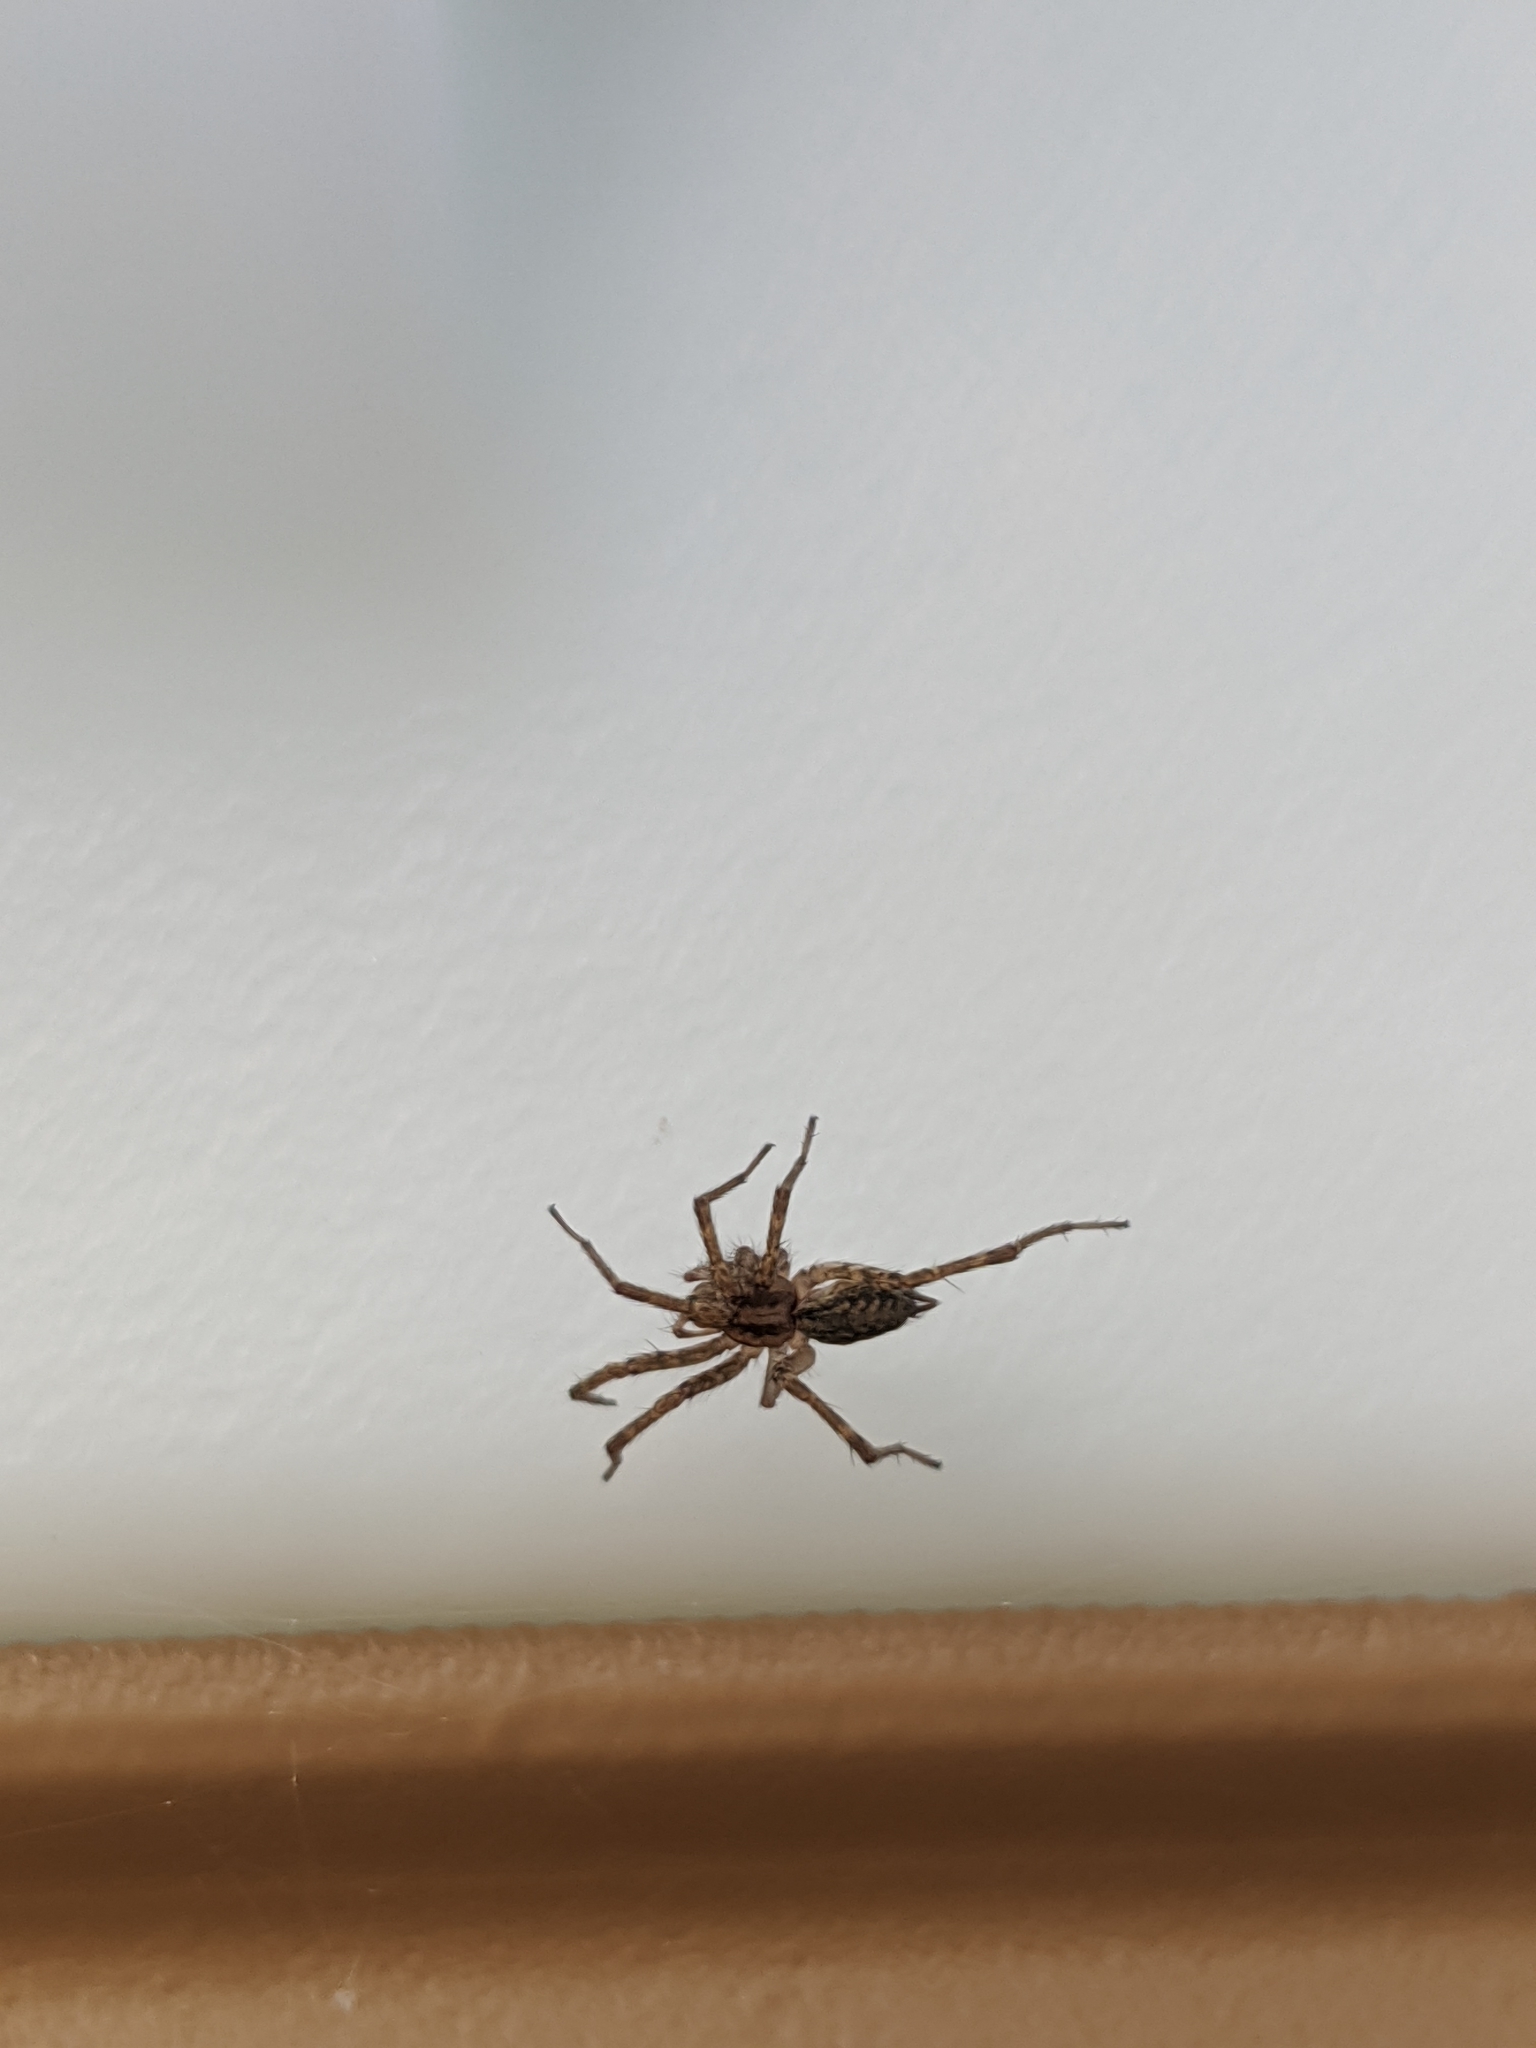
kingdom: Animalia
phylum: Arthropoda
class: Arachnida
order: Araneae
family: Agelenidae
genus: Agelenopsis
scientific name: Agelenopsis
